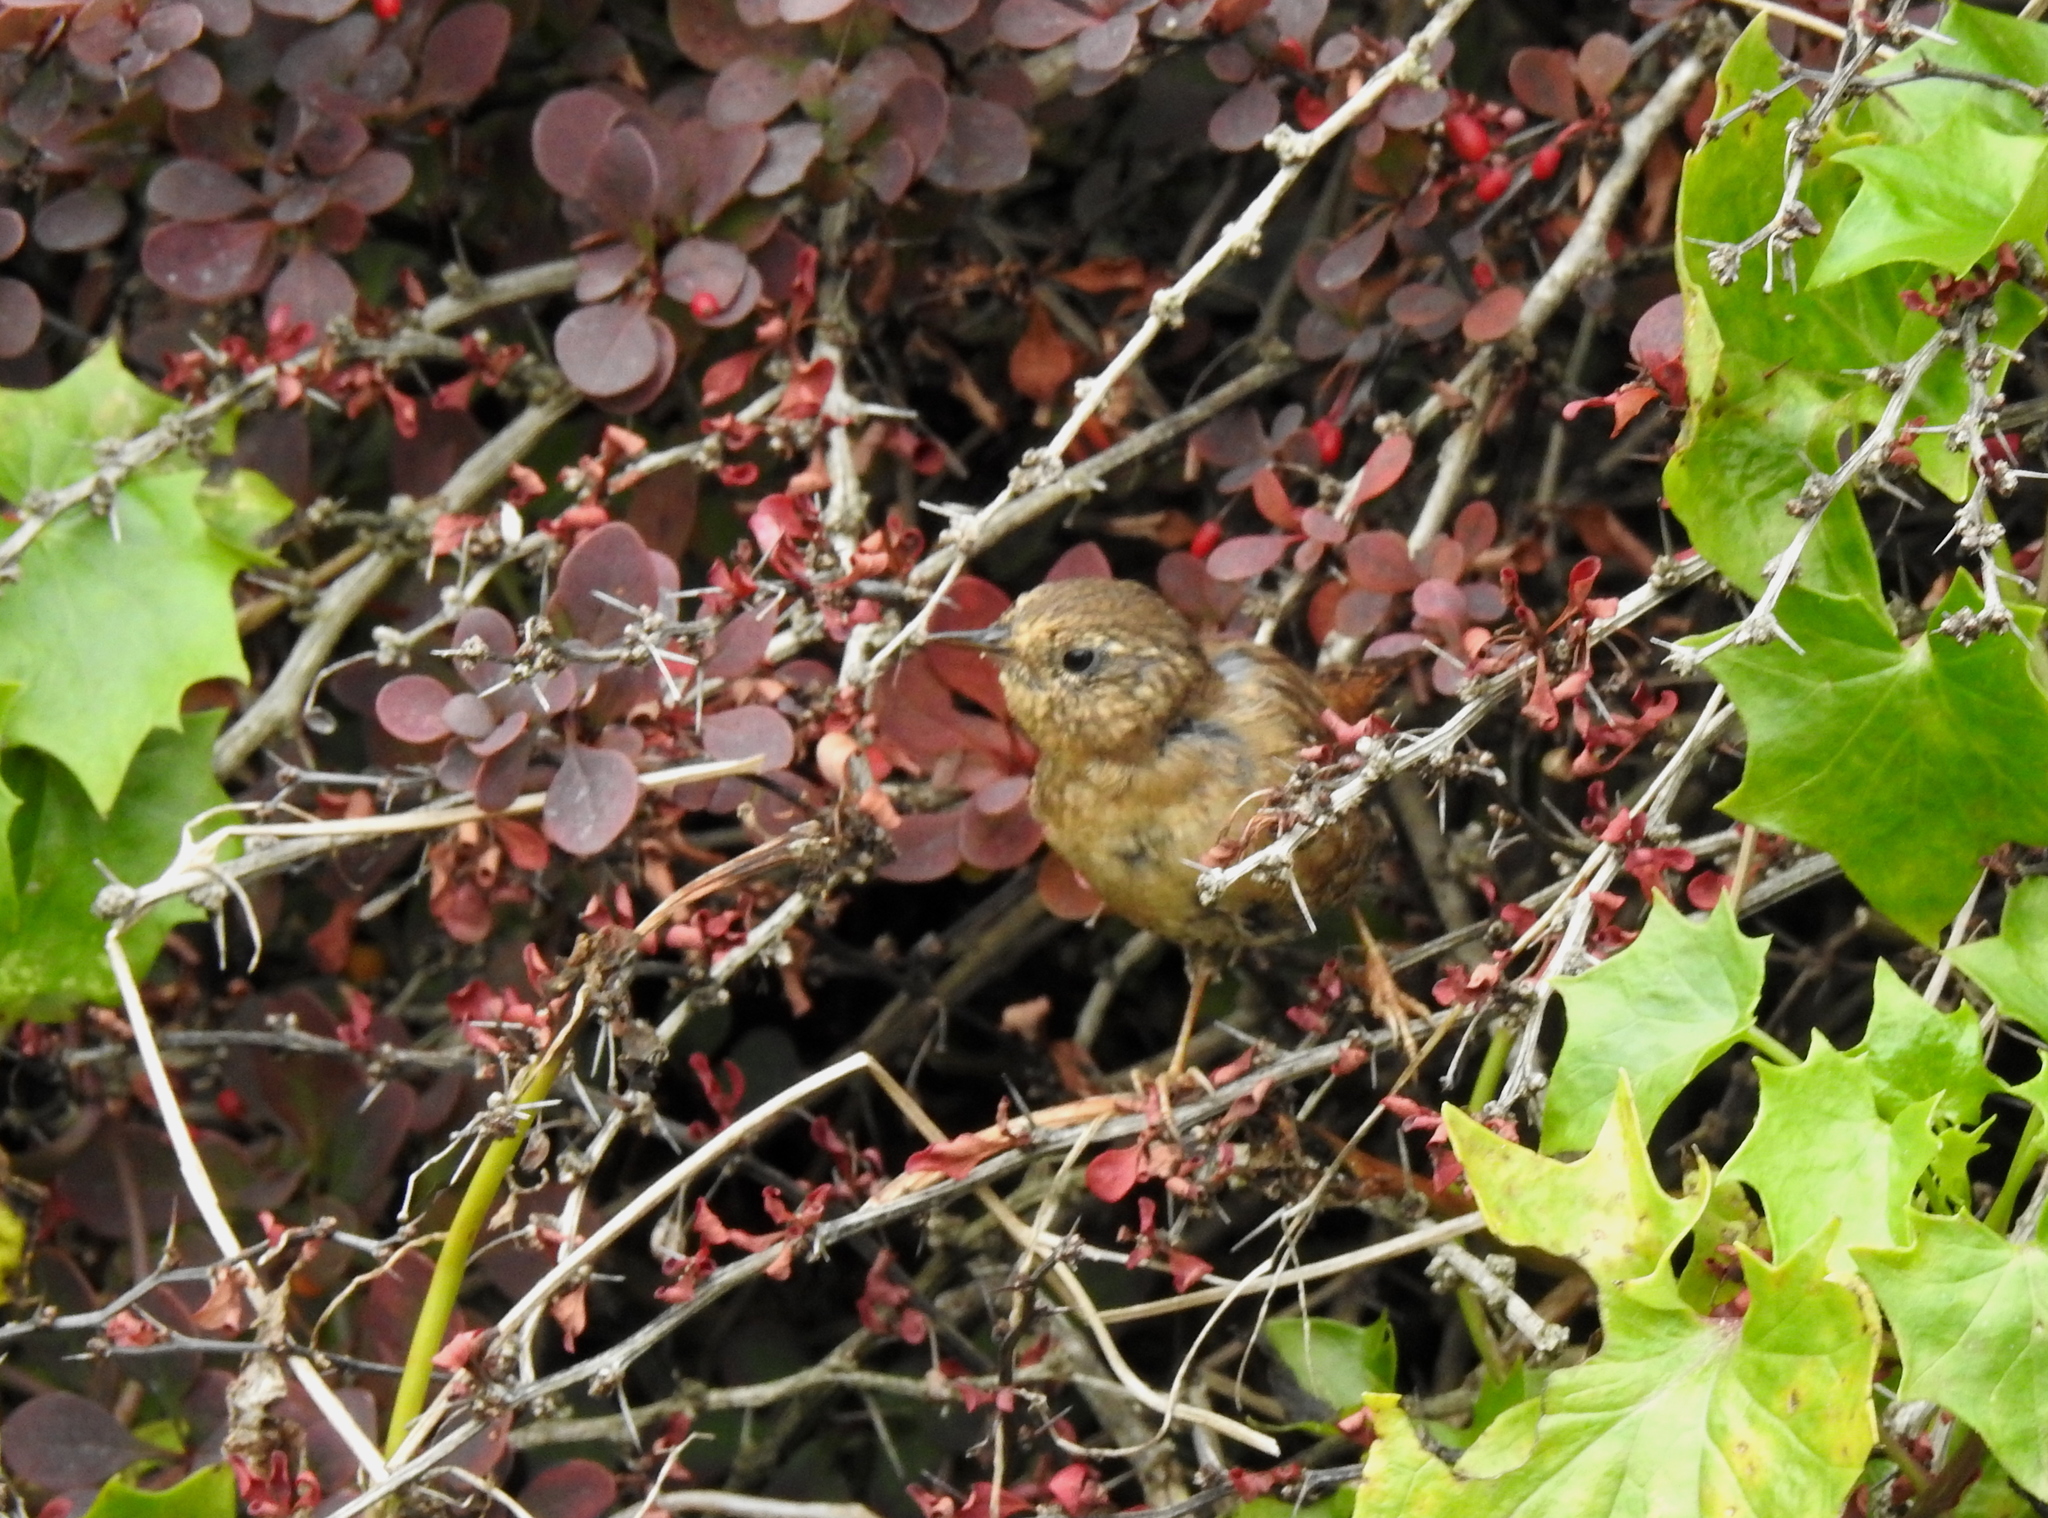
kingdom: Animalia
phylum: Chordata
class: Aves
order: Passeriformes
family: Troglodytidae
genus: Troglodytes
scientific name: Troglodytes pacificus
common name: Pacific wren
